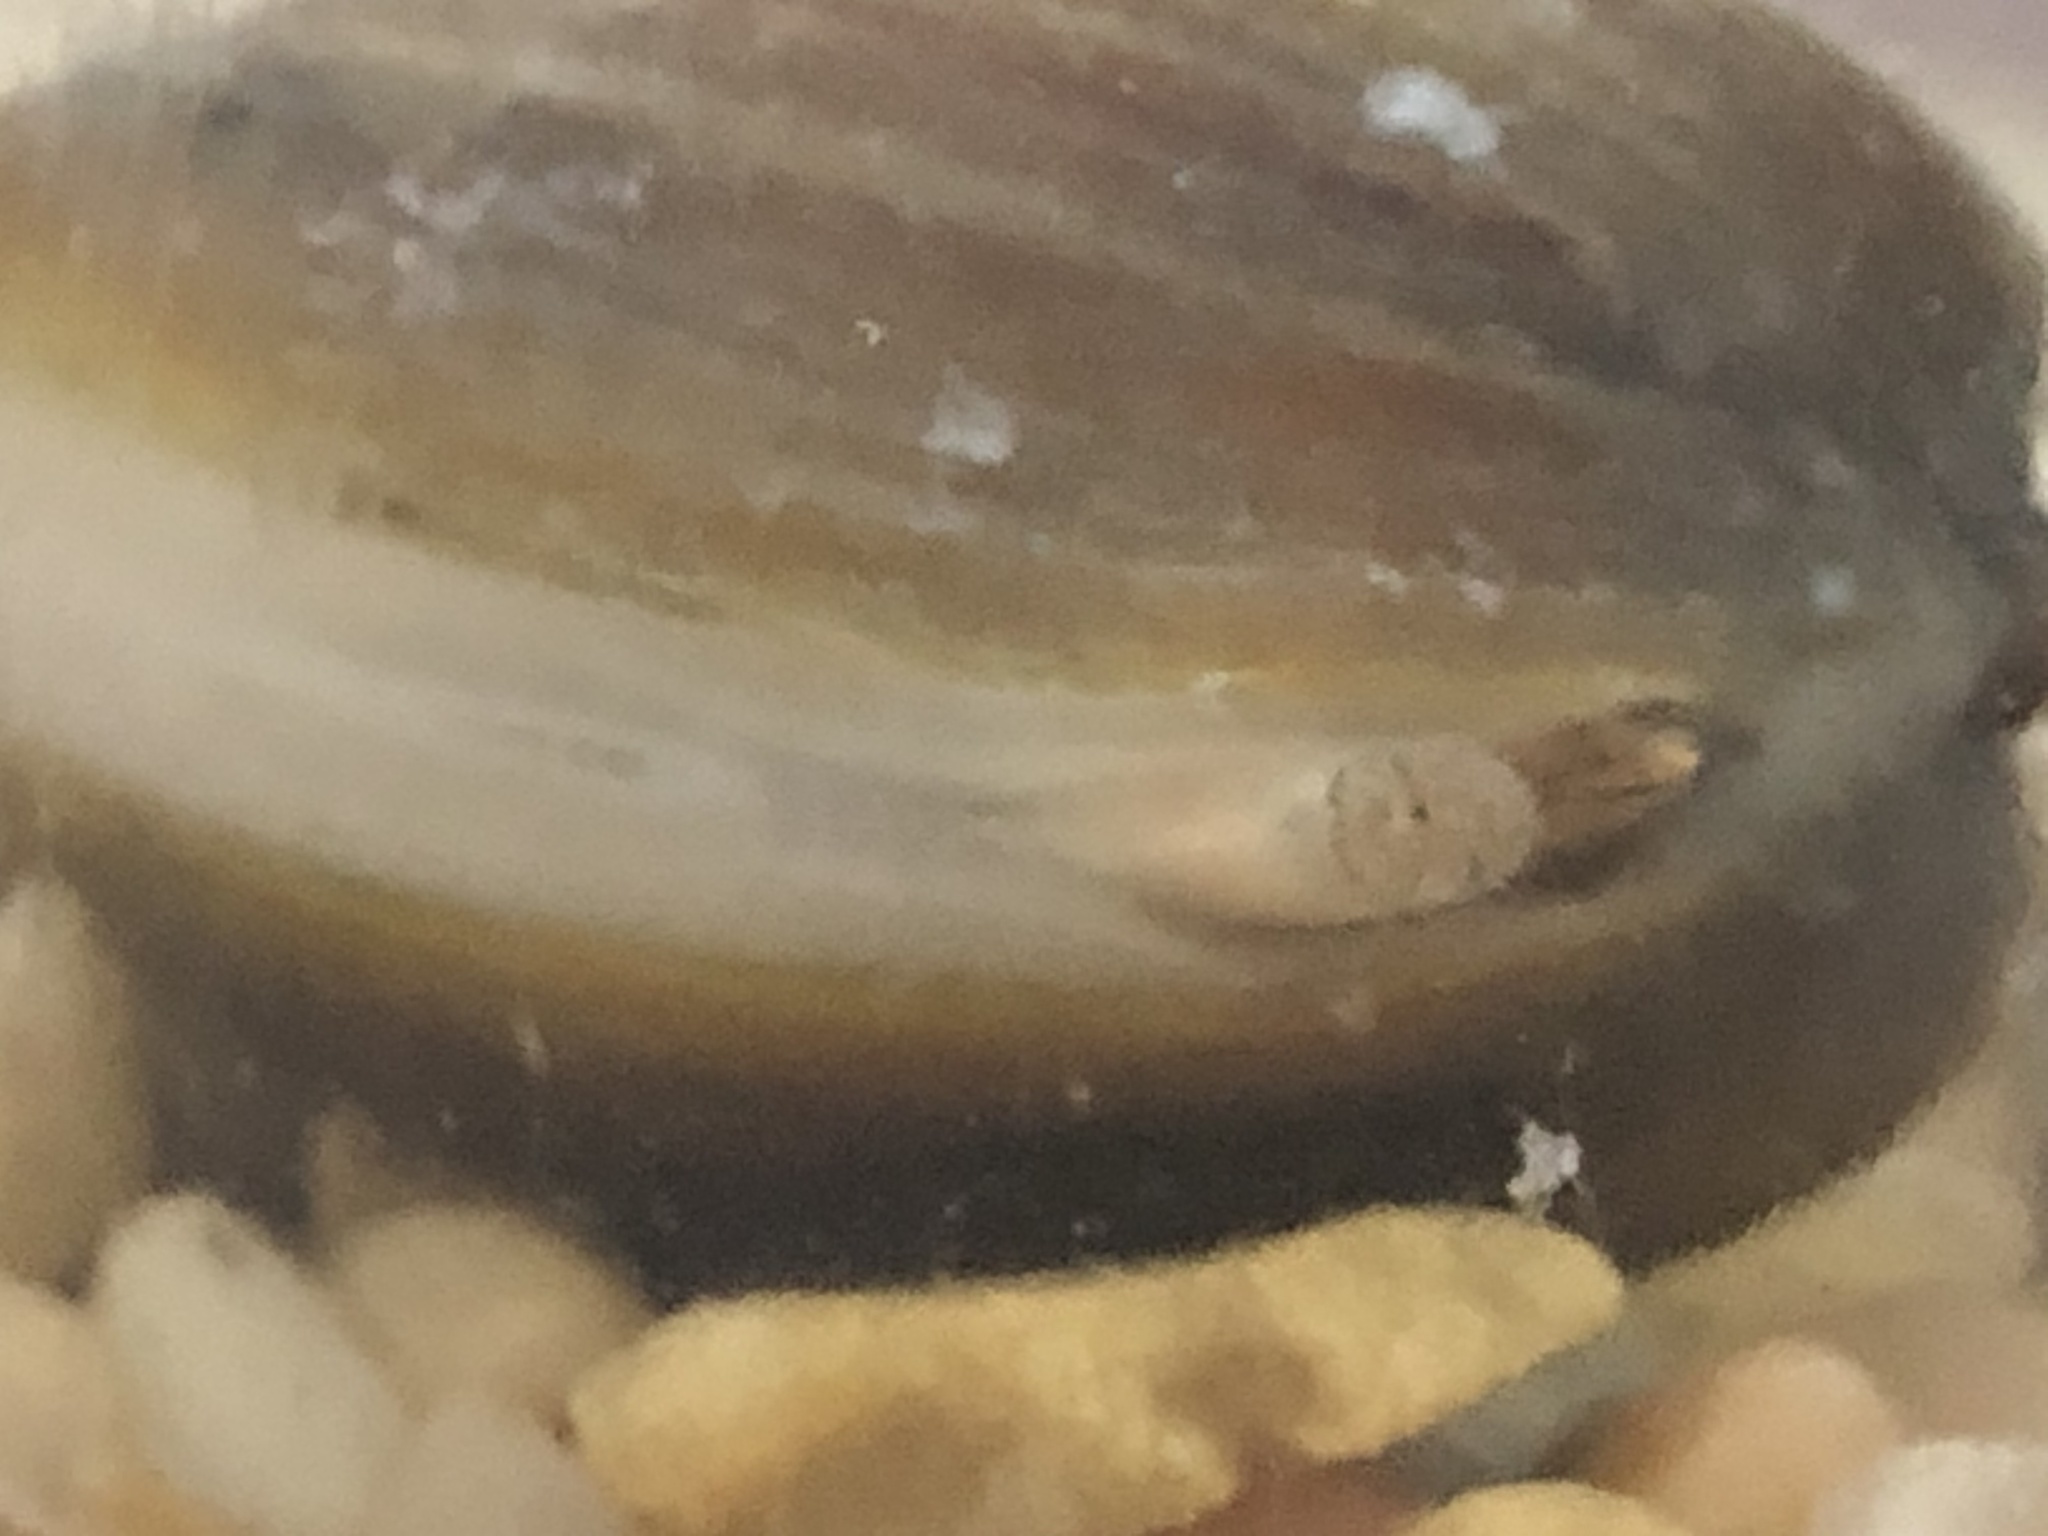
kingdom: Animalia
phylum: Mollusca
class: Bivalvia
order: Venerida
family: Cyrenidae
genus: Corbicula
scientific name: Corbicula fluminea
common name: Asian clam
